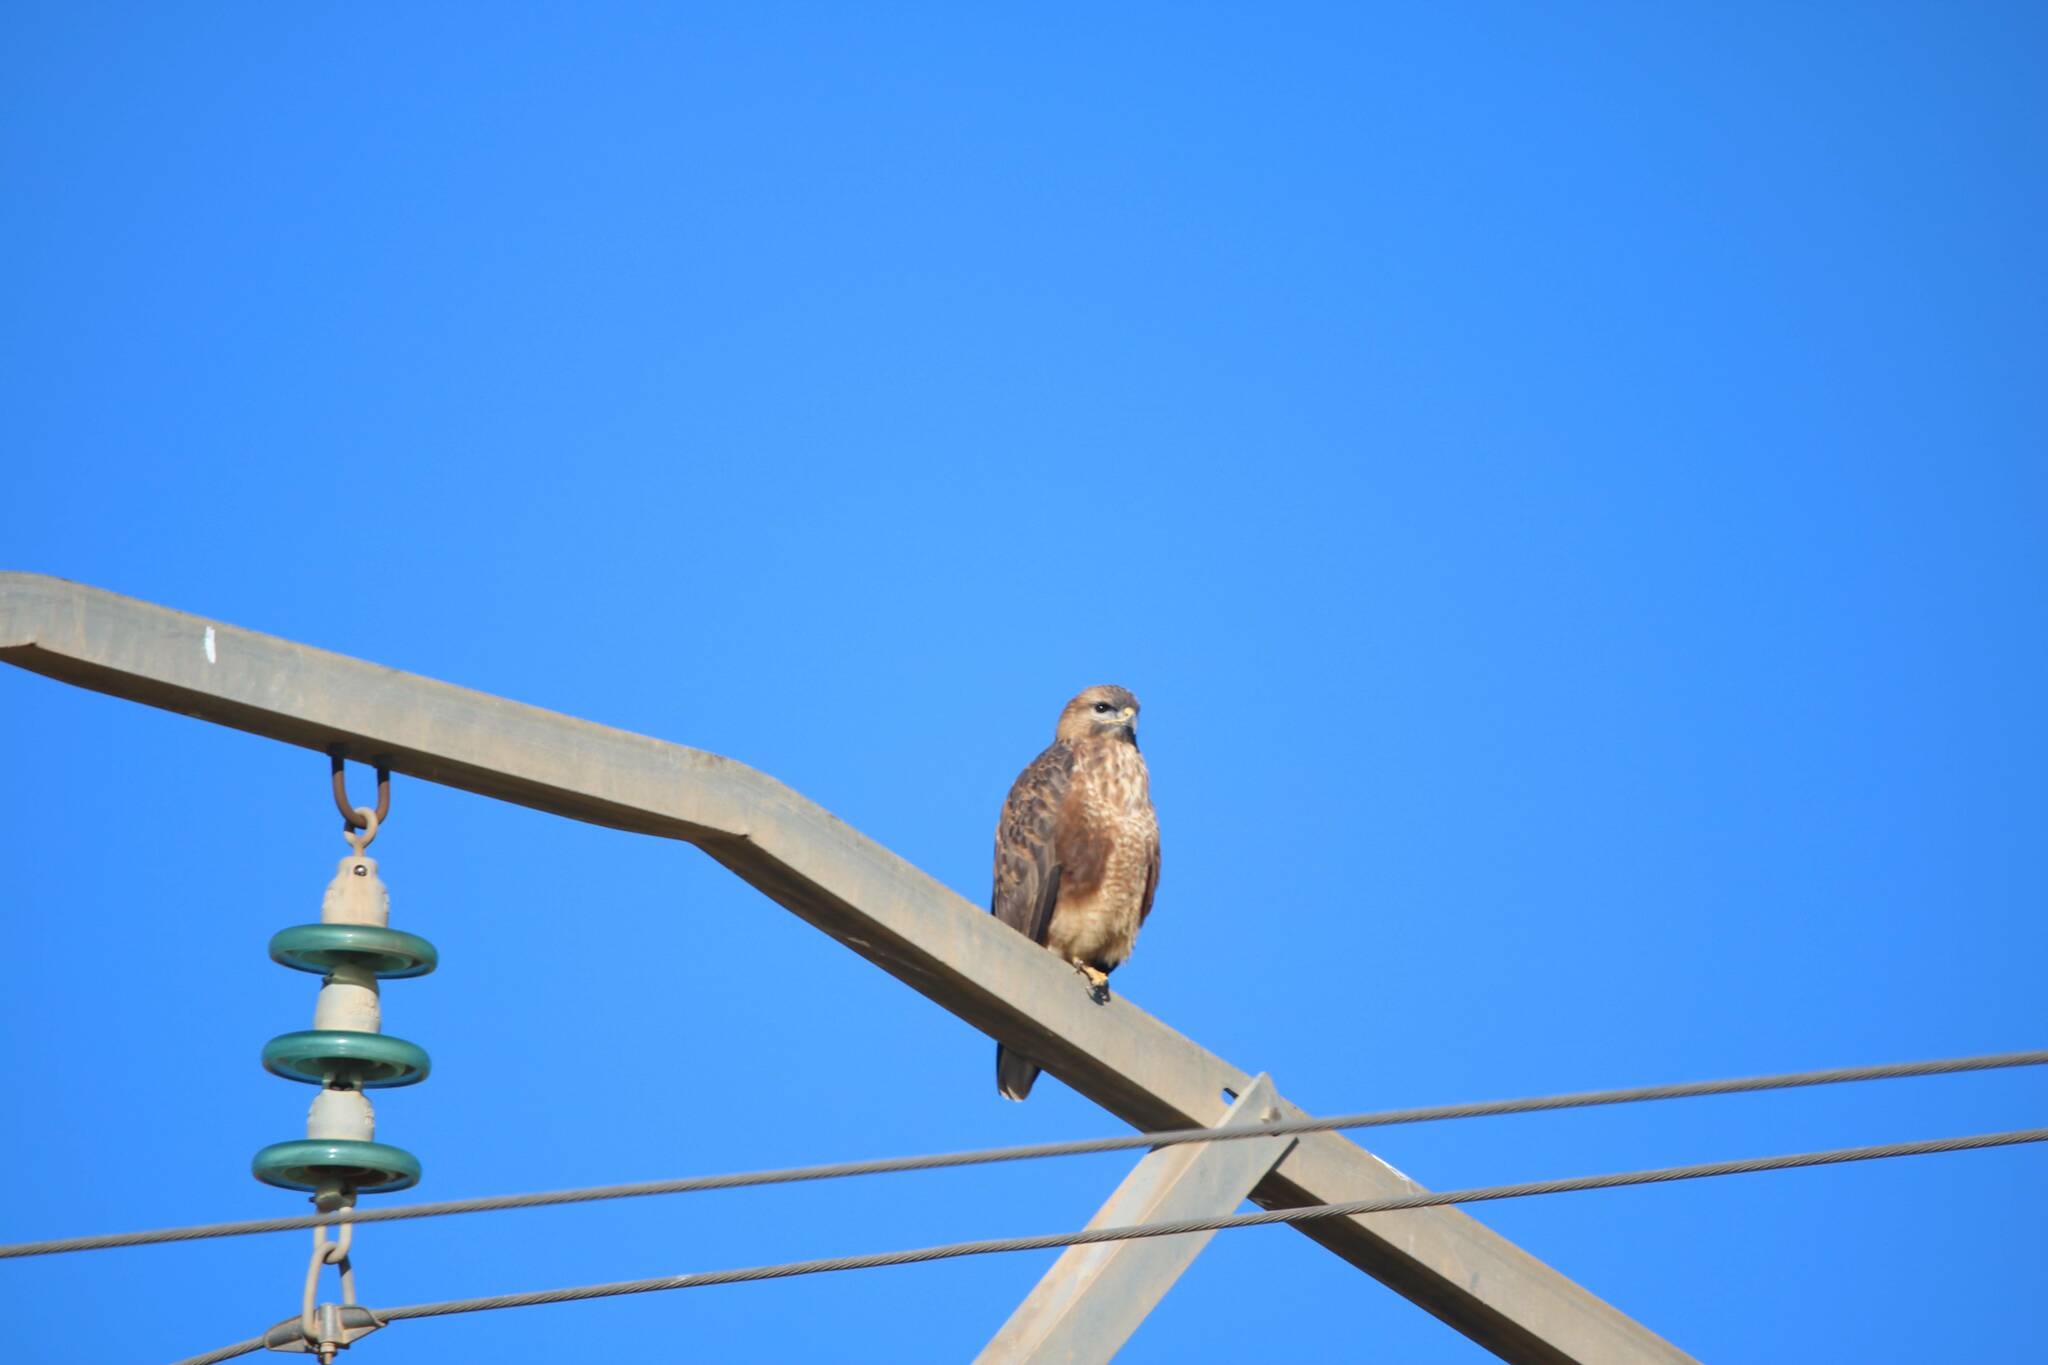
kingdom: Animalia
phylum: Chordata
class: Aves
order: Accipitriformes
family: Accipitridae
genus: Buteo
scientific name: Buteo rufinus
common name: Long-legged buzzard
